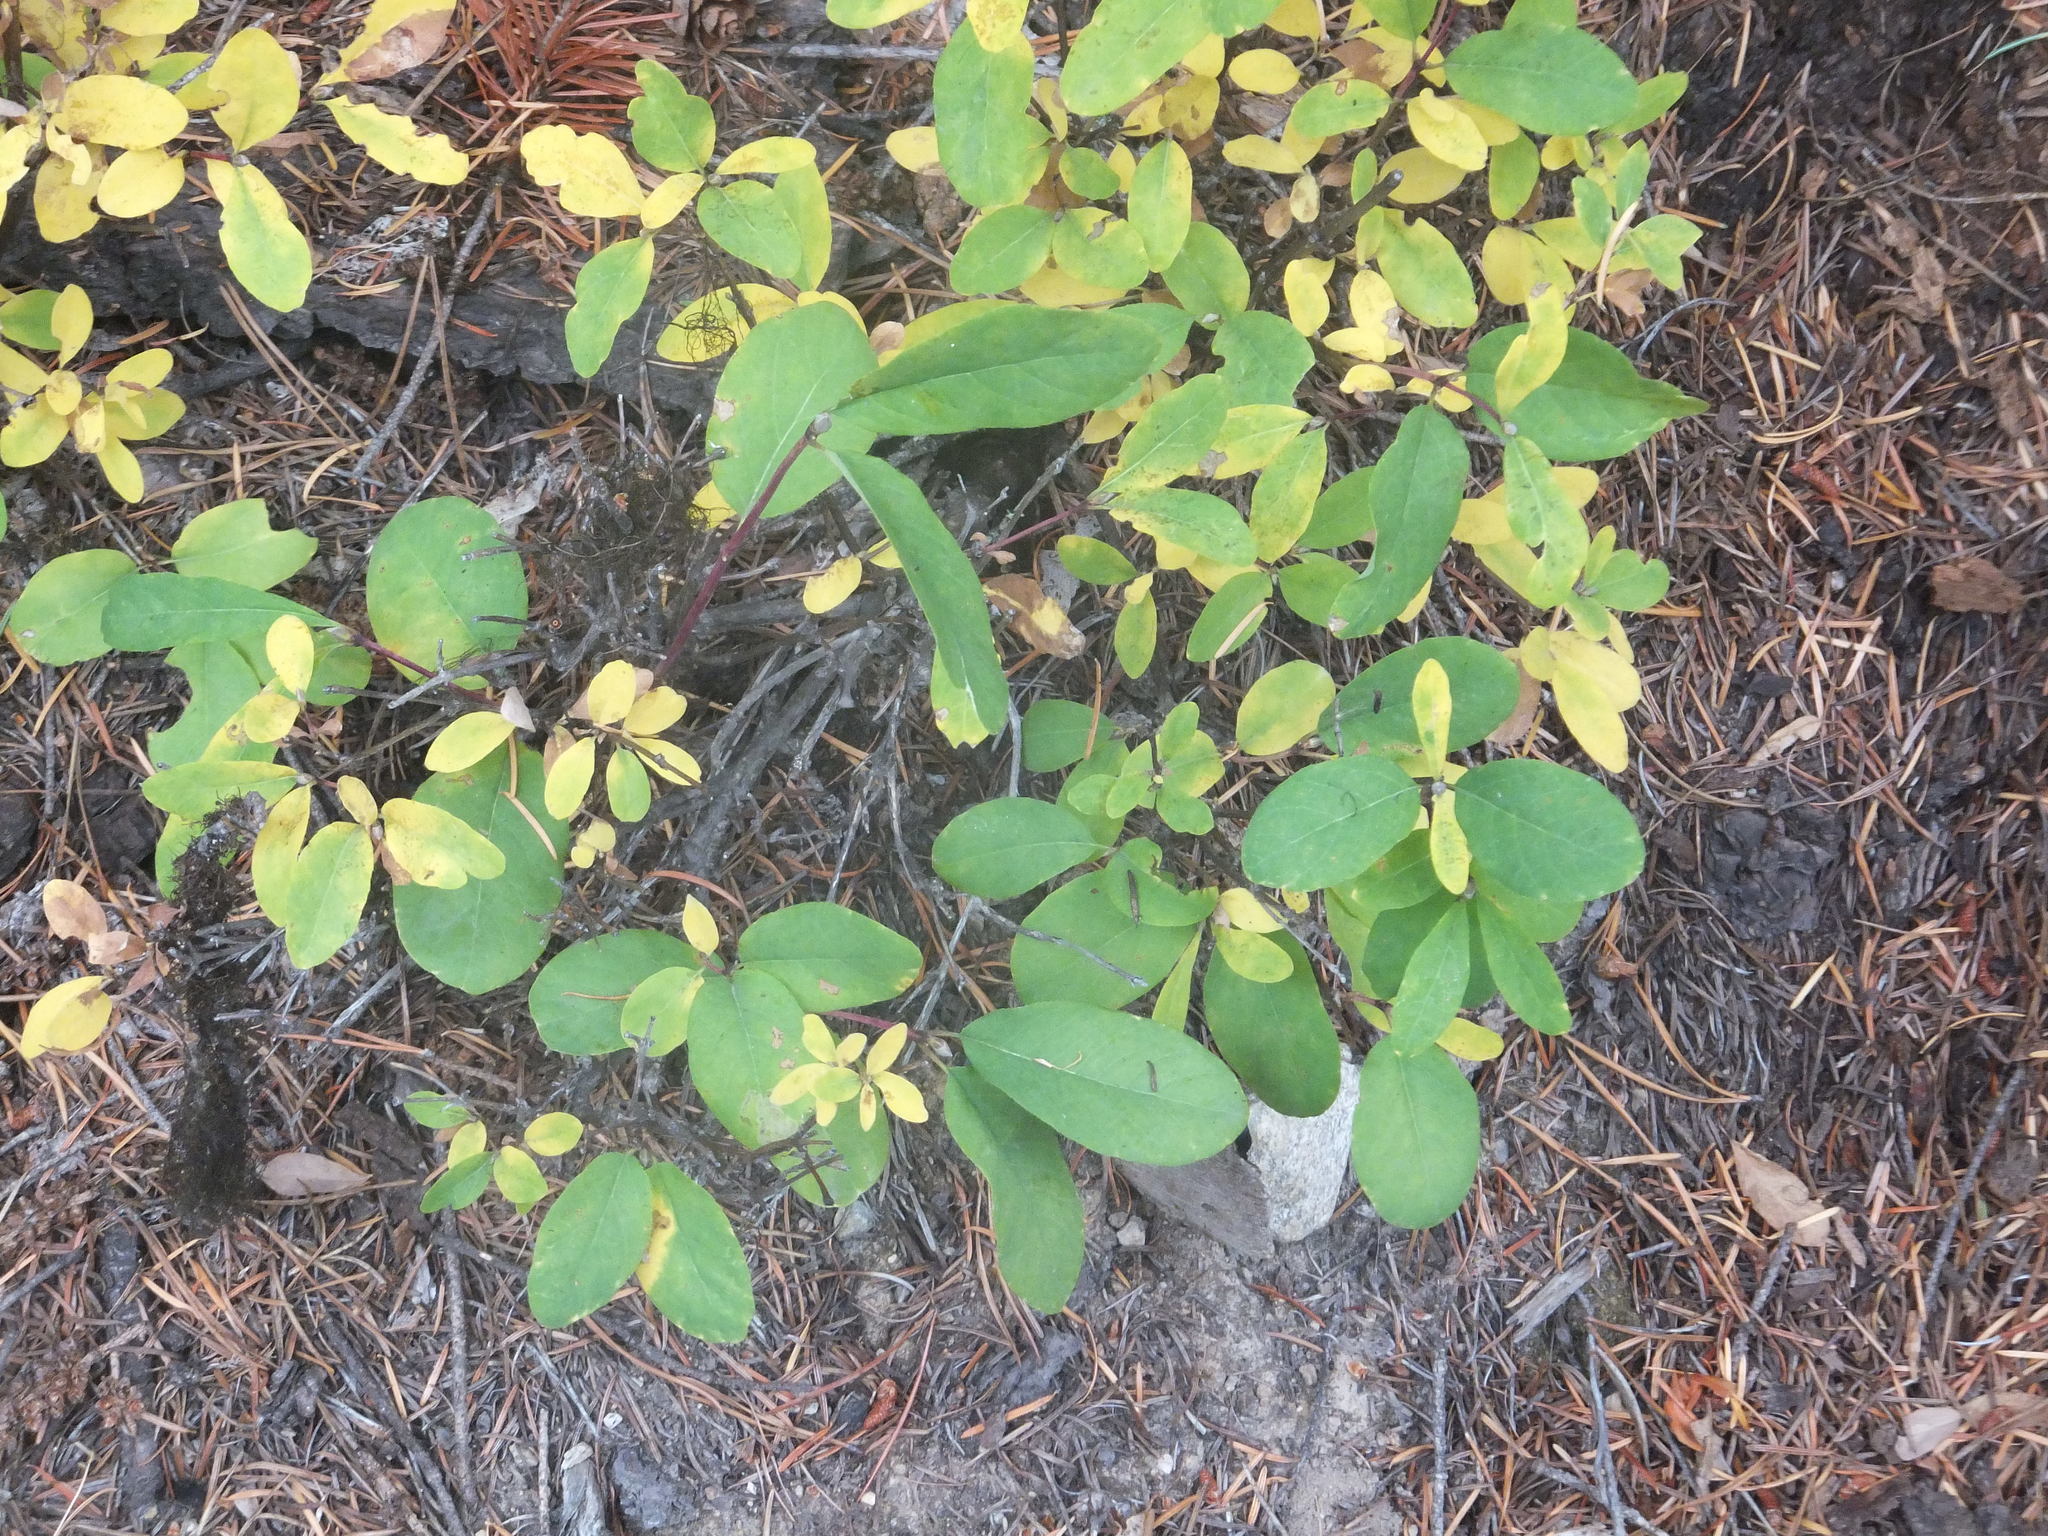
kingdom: Plantae
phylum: Tracheophyta
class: Magnoliopsida
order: Dipsacales
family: Caprifoliaceae
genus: Lonicera
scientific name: Lonicera utahensis
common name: Utah honeysuckle
